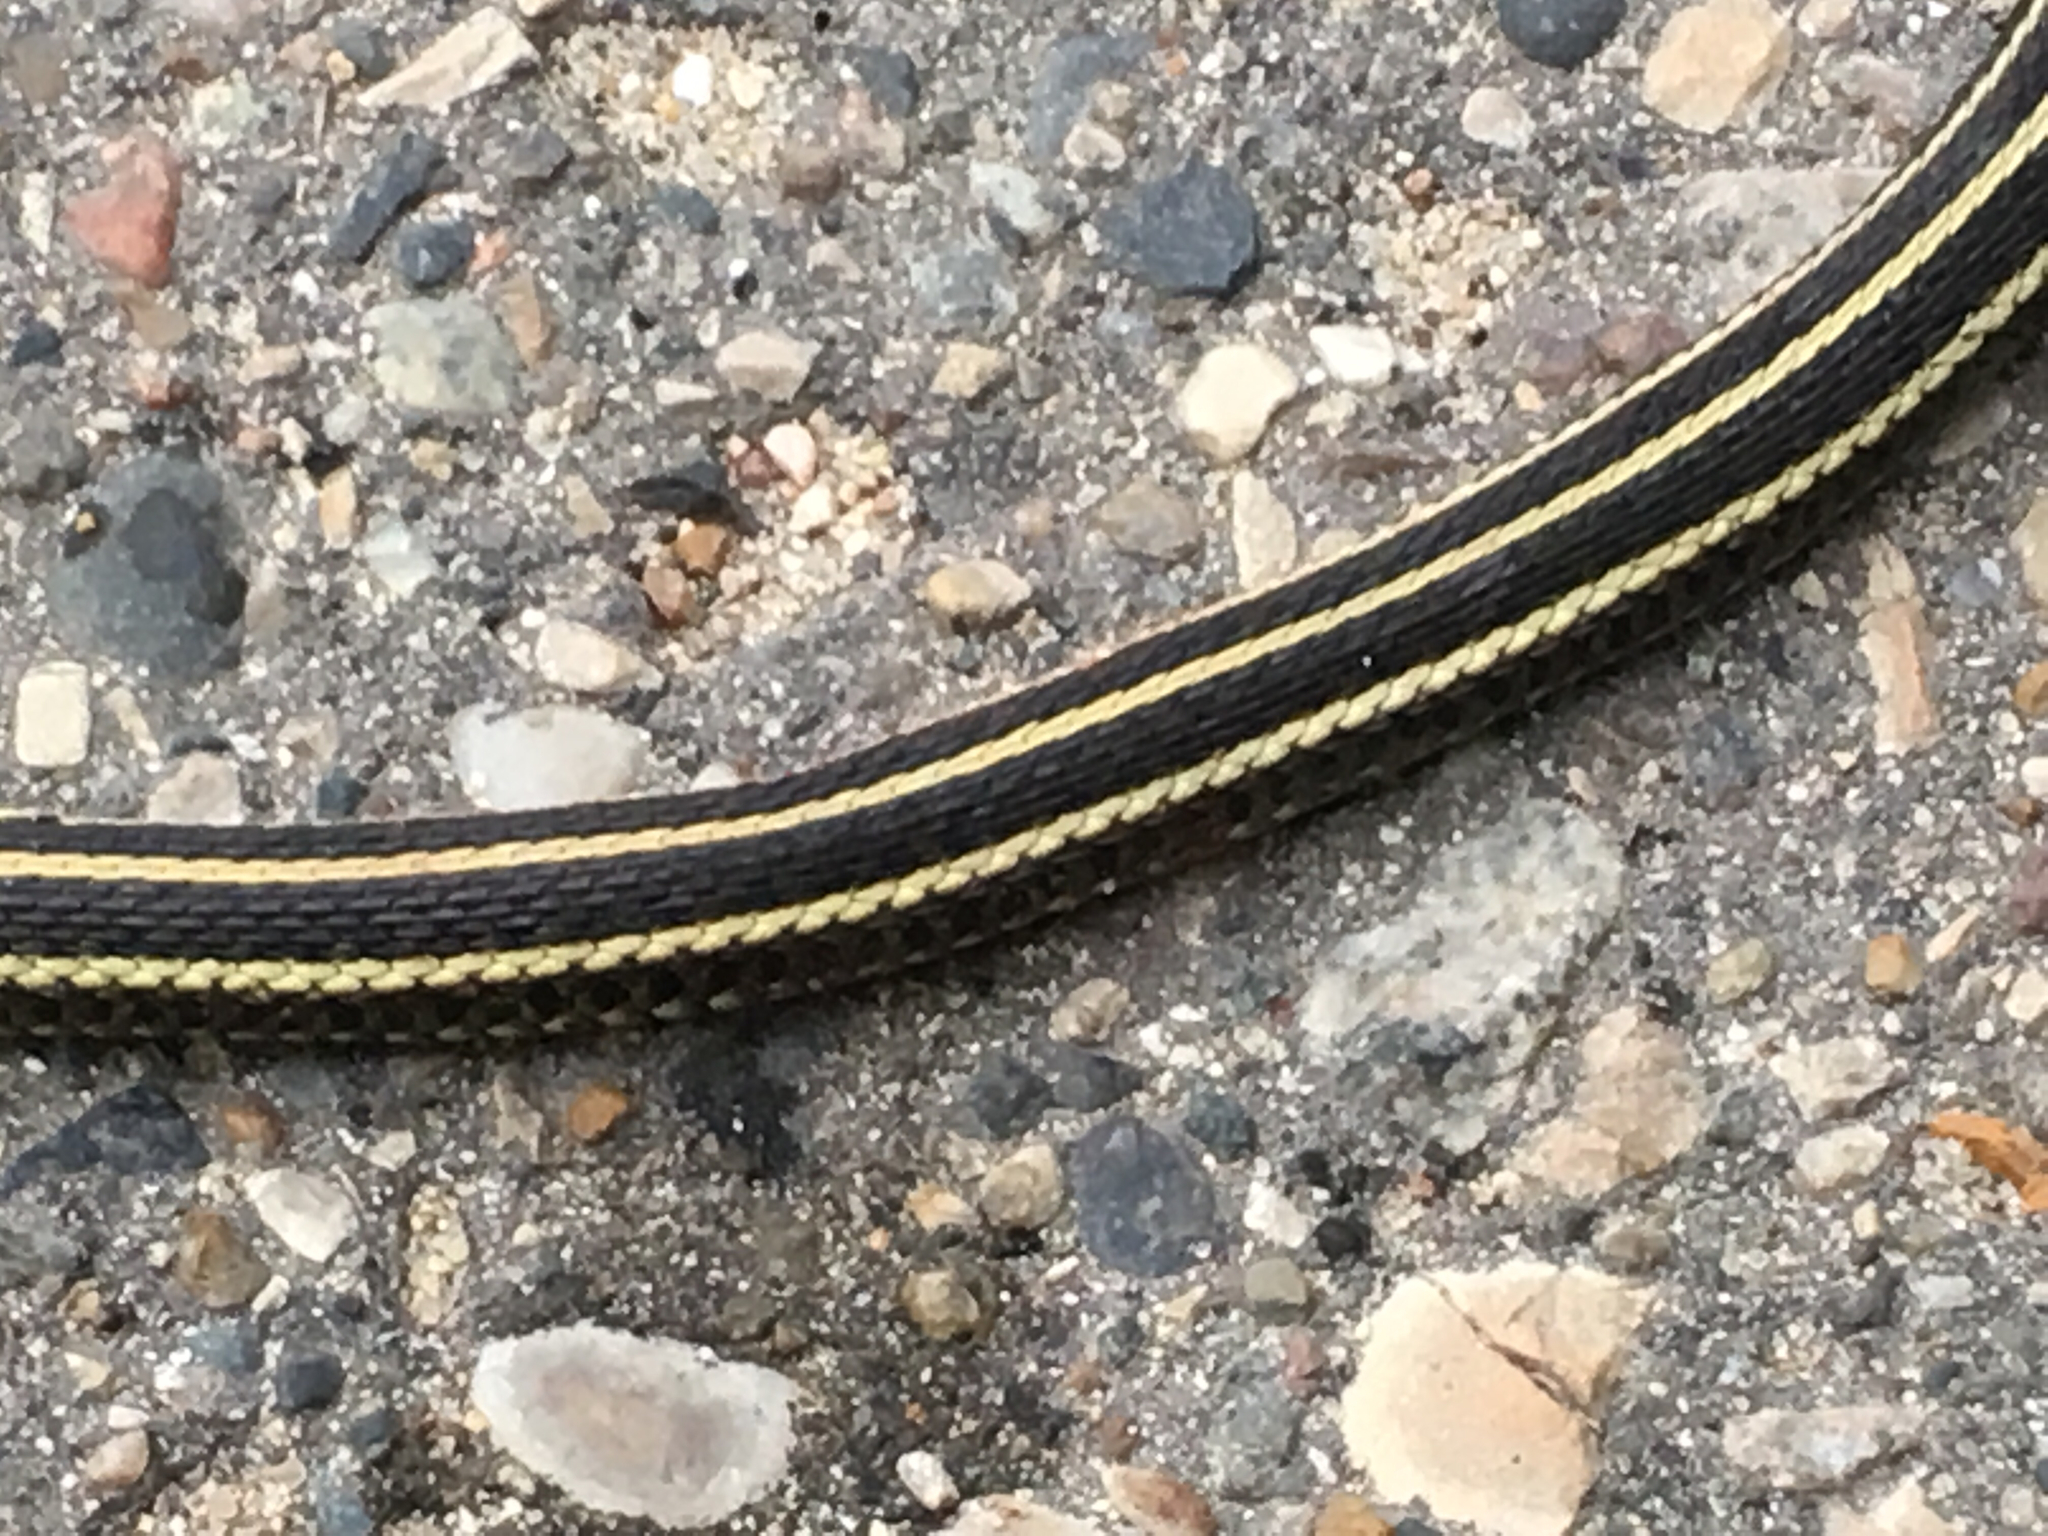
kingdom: Animalia
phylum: Chordata
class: Squamata
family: Colubridae
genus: Thamnophis
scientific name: Thamnophis radix
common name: Plains garter snake
